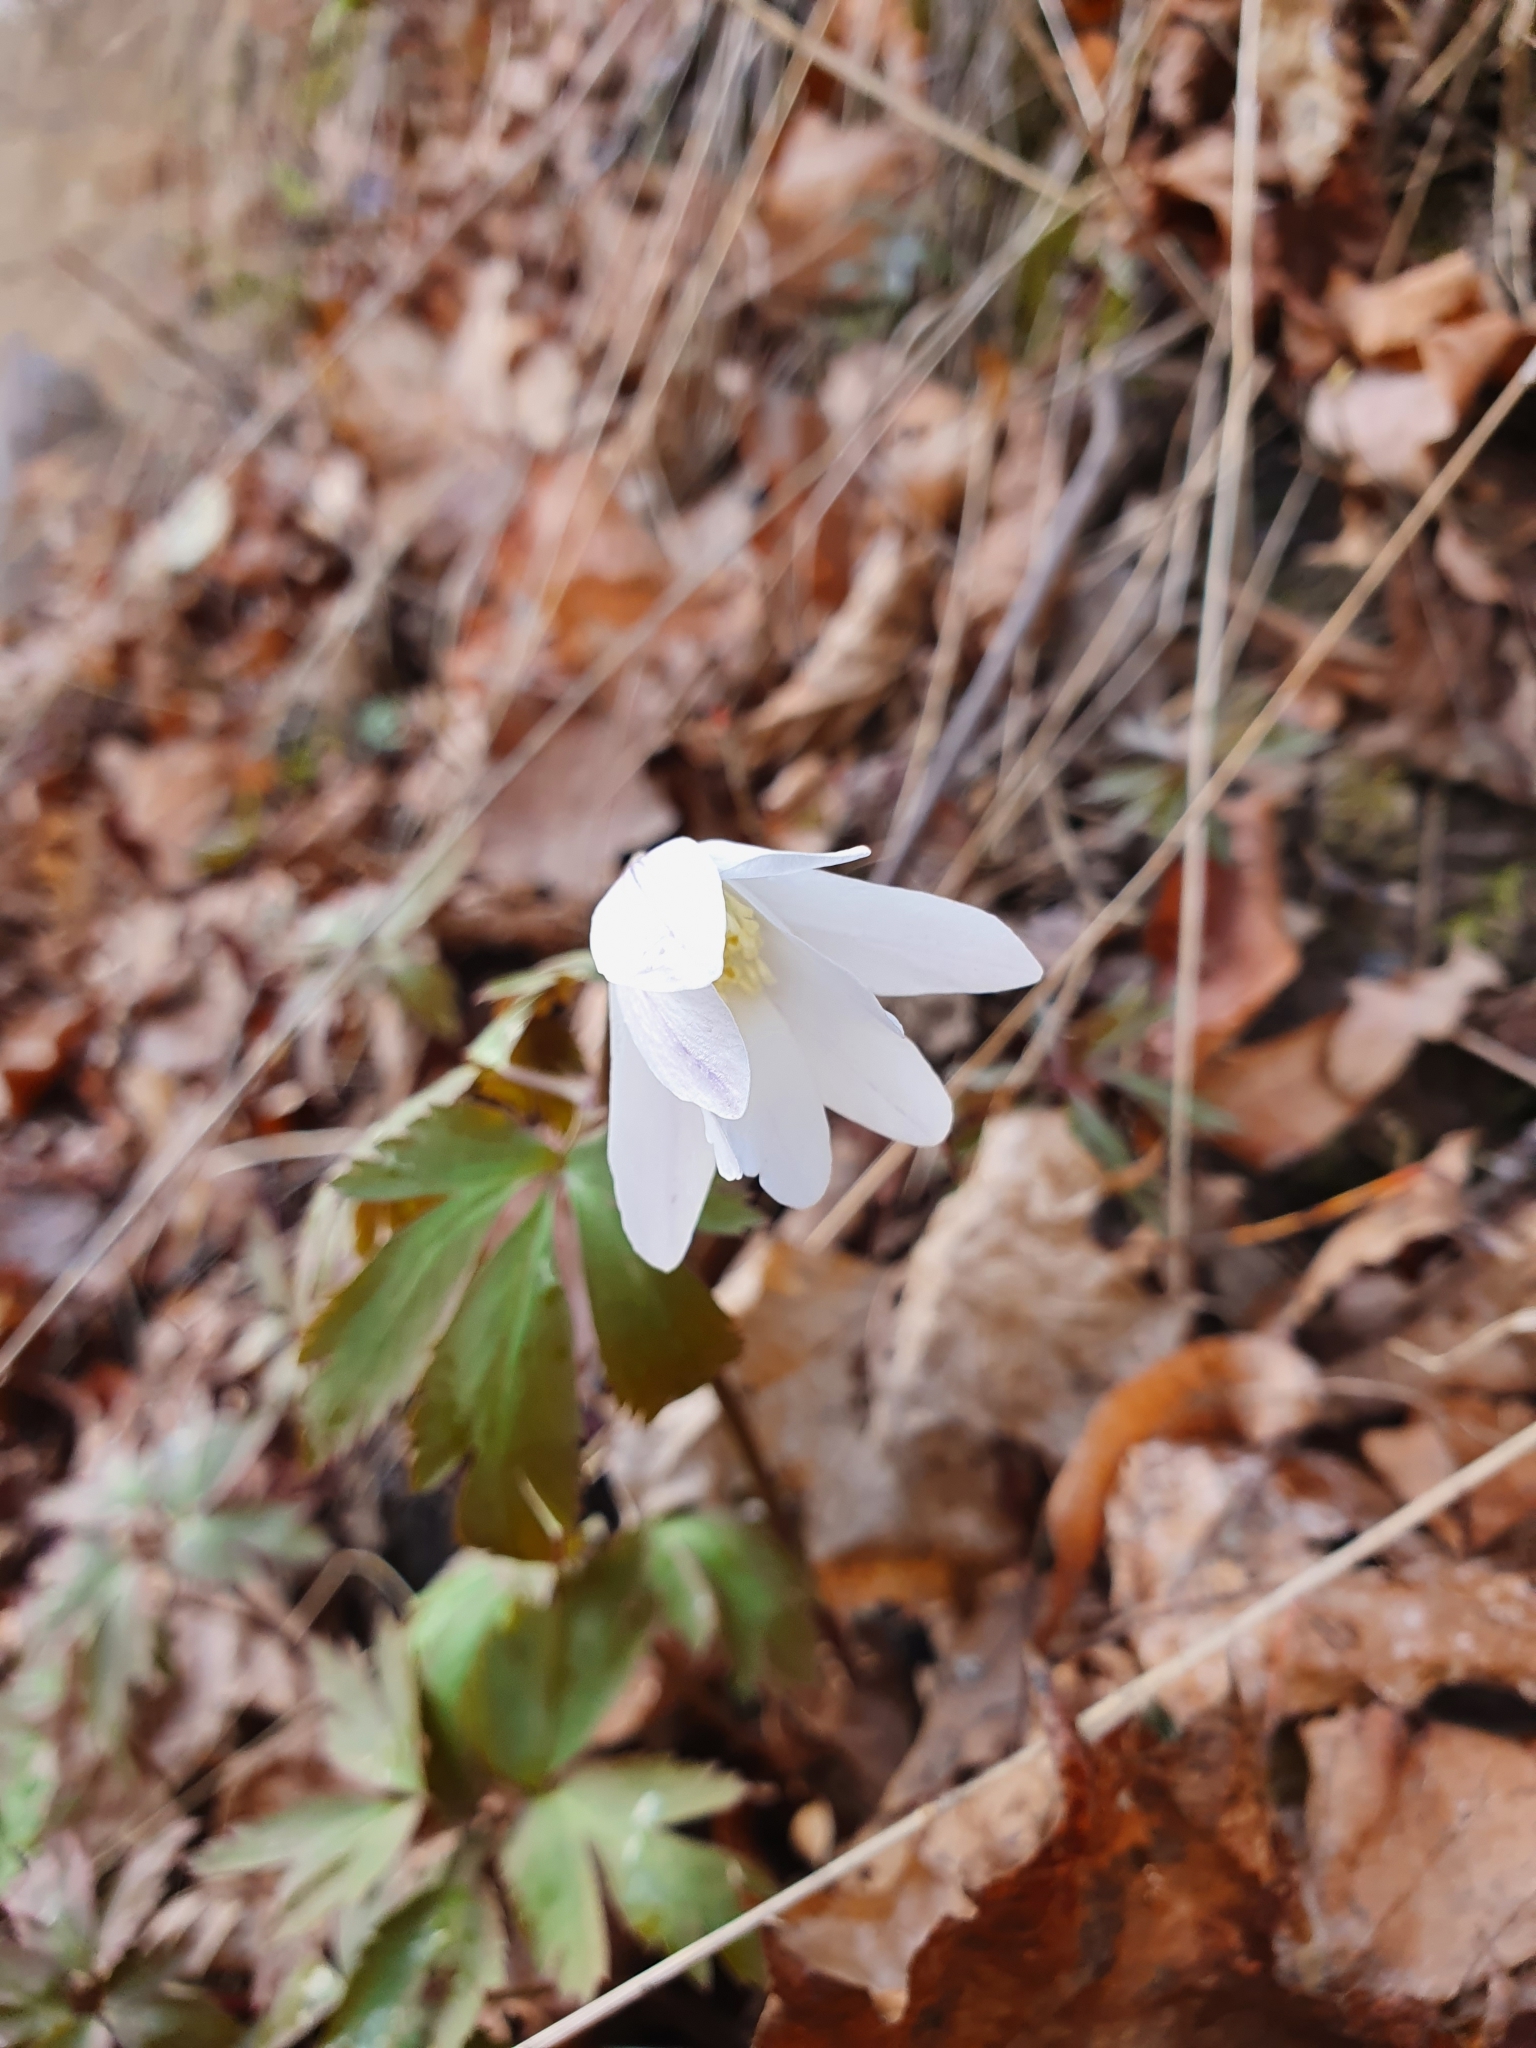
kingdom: Plantae
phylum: Tracheophyta
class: Magnoliopsida
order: Ranunculales
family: Ranunculaceae
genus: Anemone
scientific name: Anemone altaica
